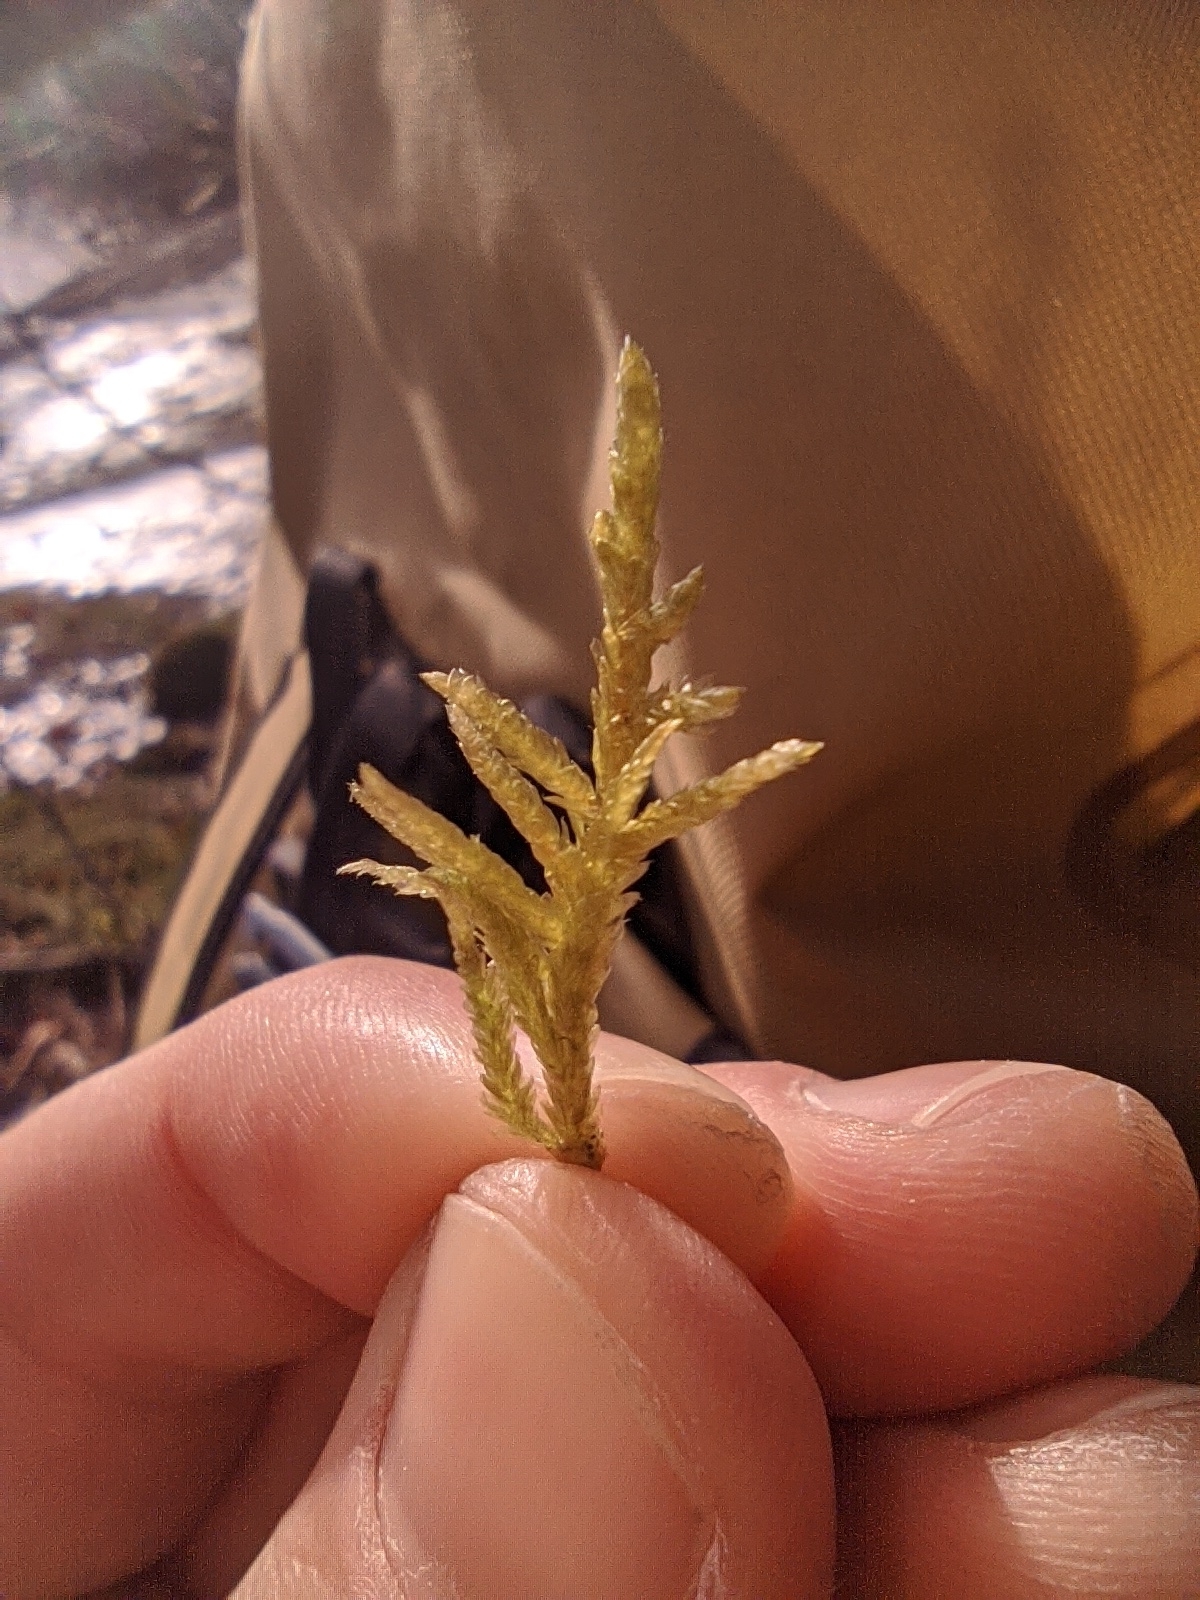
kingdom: Plantae
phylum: Bryophyta
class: Bryopsida
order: Hypnales
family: Brachytheciaceae
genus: Pseudoscleropodium
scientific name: Pseudoscleropodium purum
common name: Neat feather-moss
